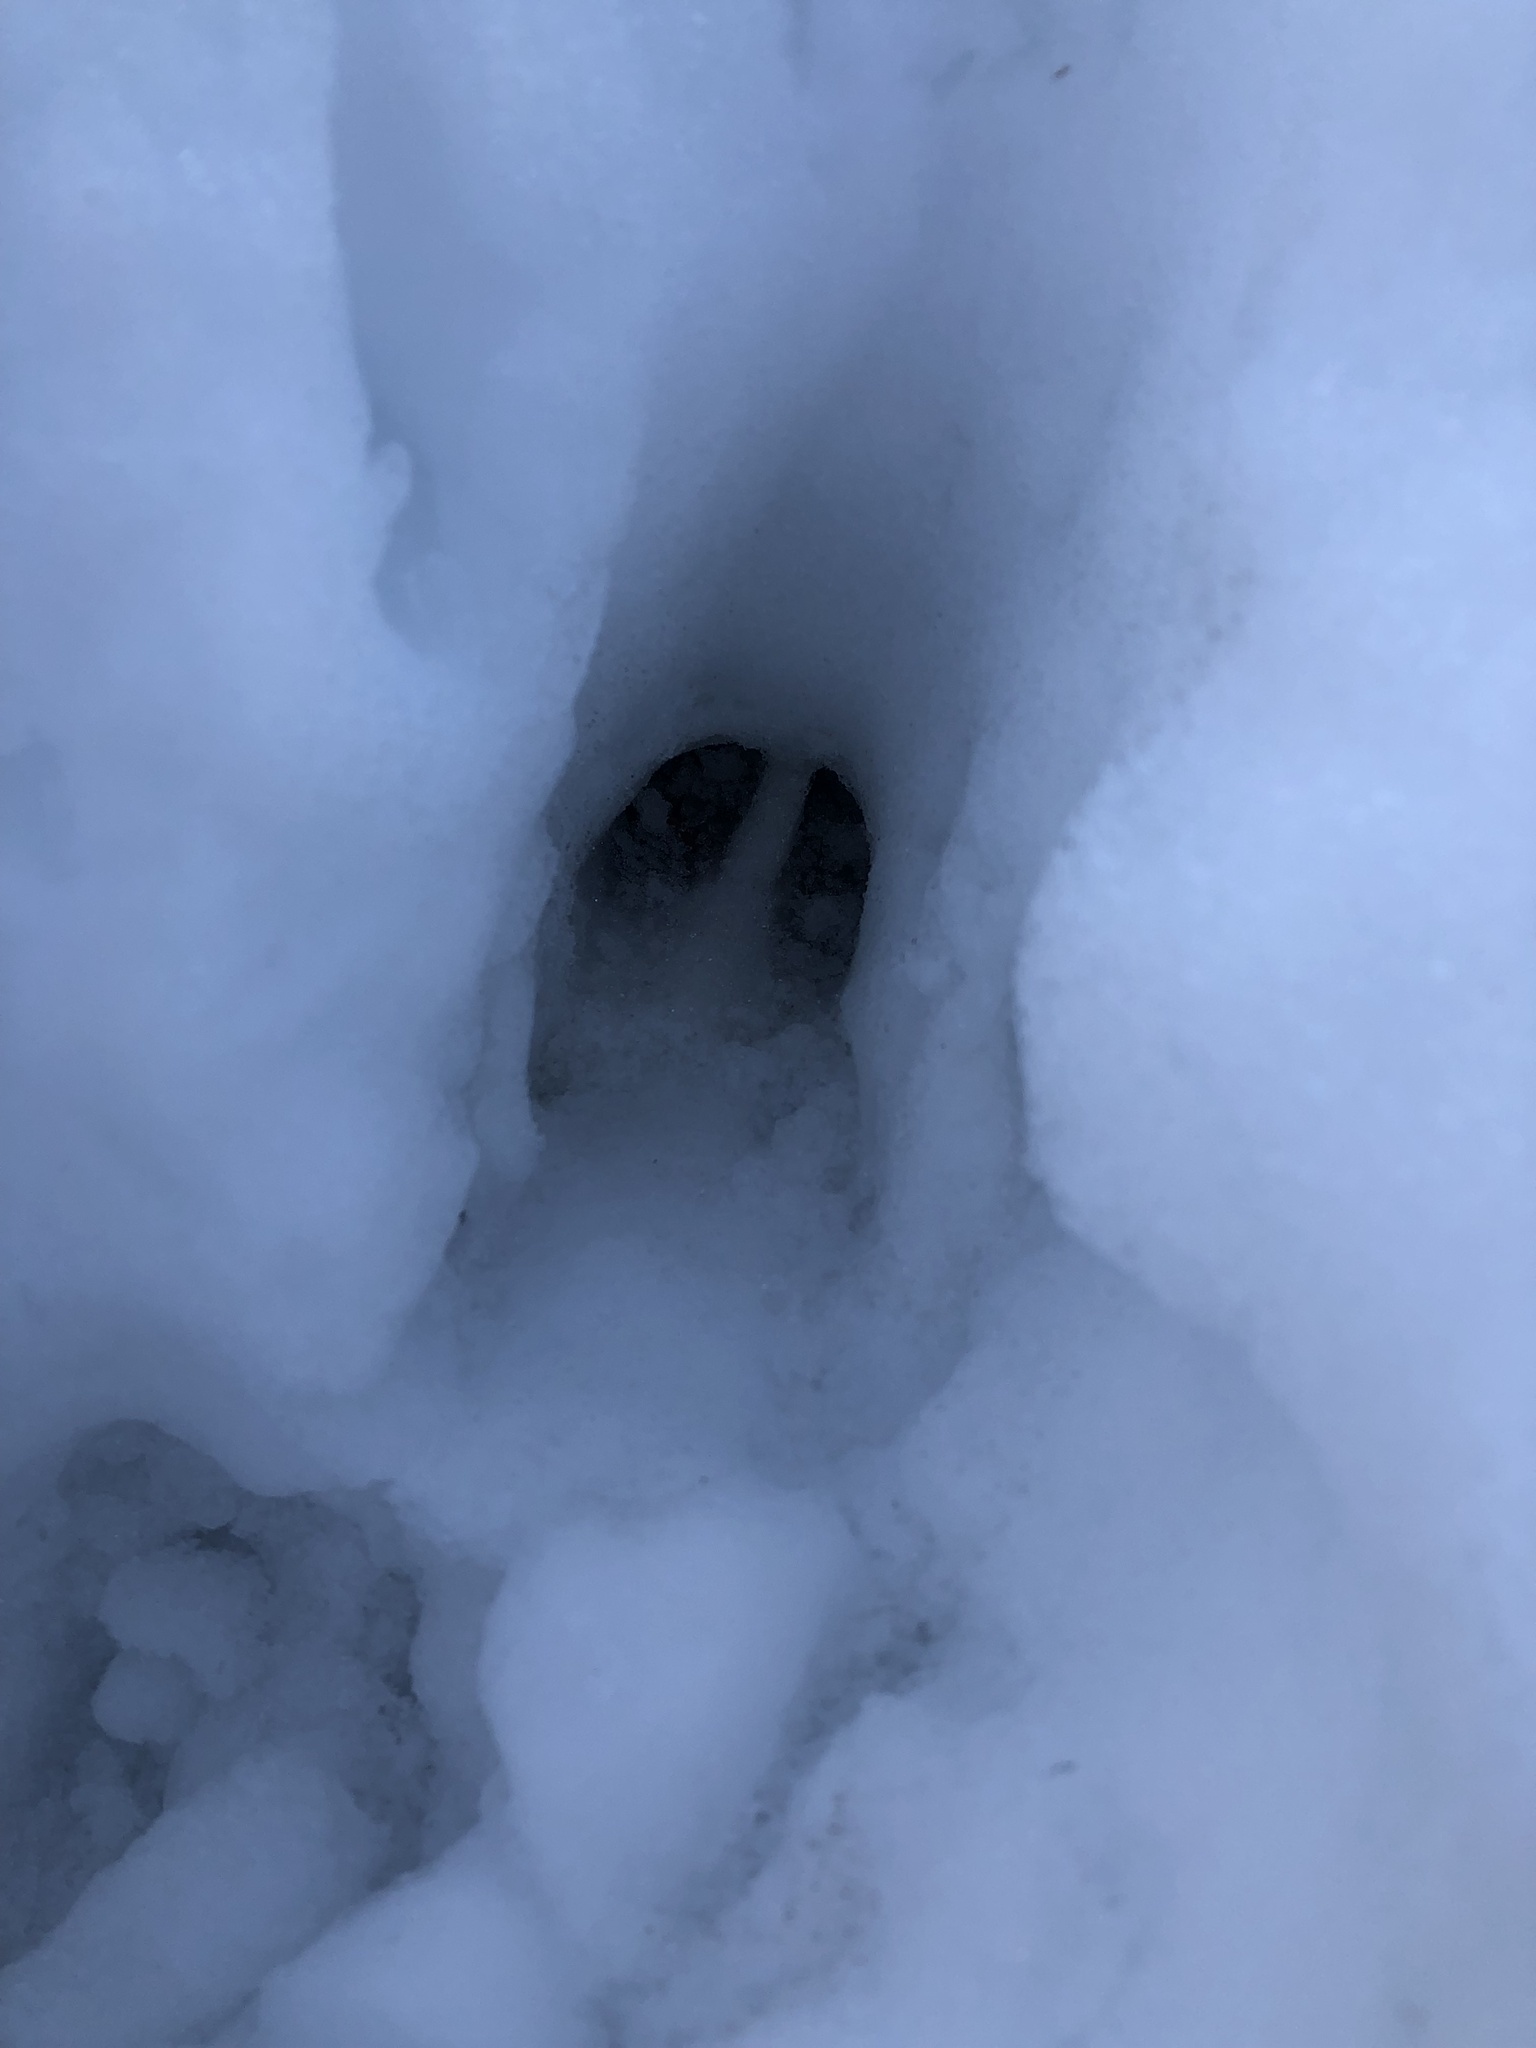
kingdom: Animalia
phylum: Chordata
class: Mammalia
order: Artiodactyla
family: Cervidae
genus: Odocoileus
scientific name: Odocoileus virginianus
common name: White-tailed deer
